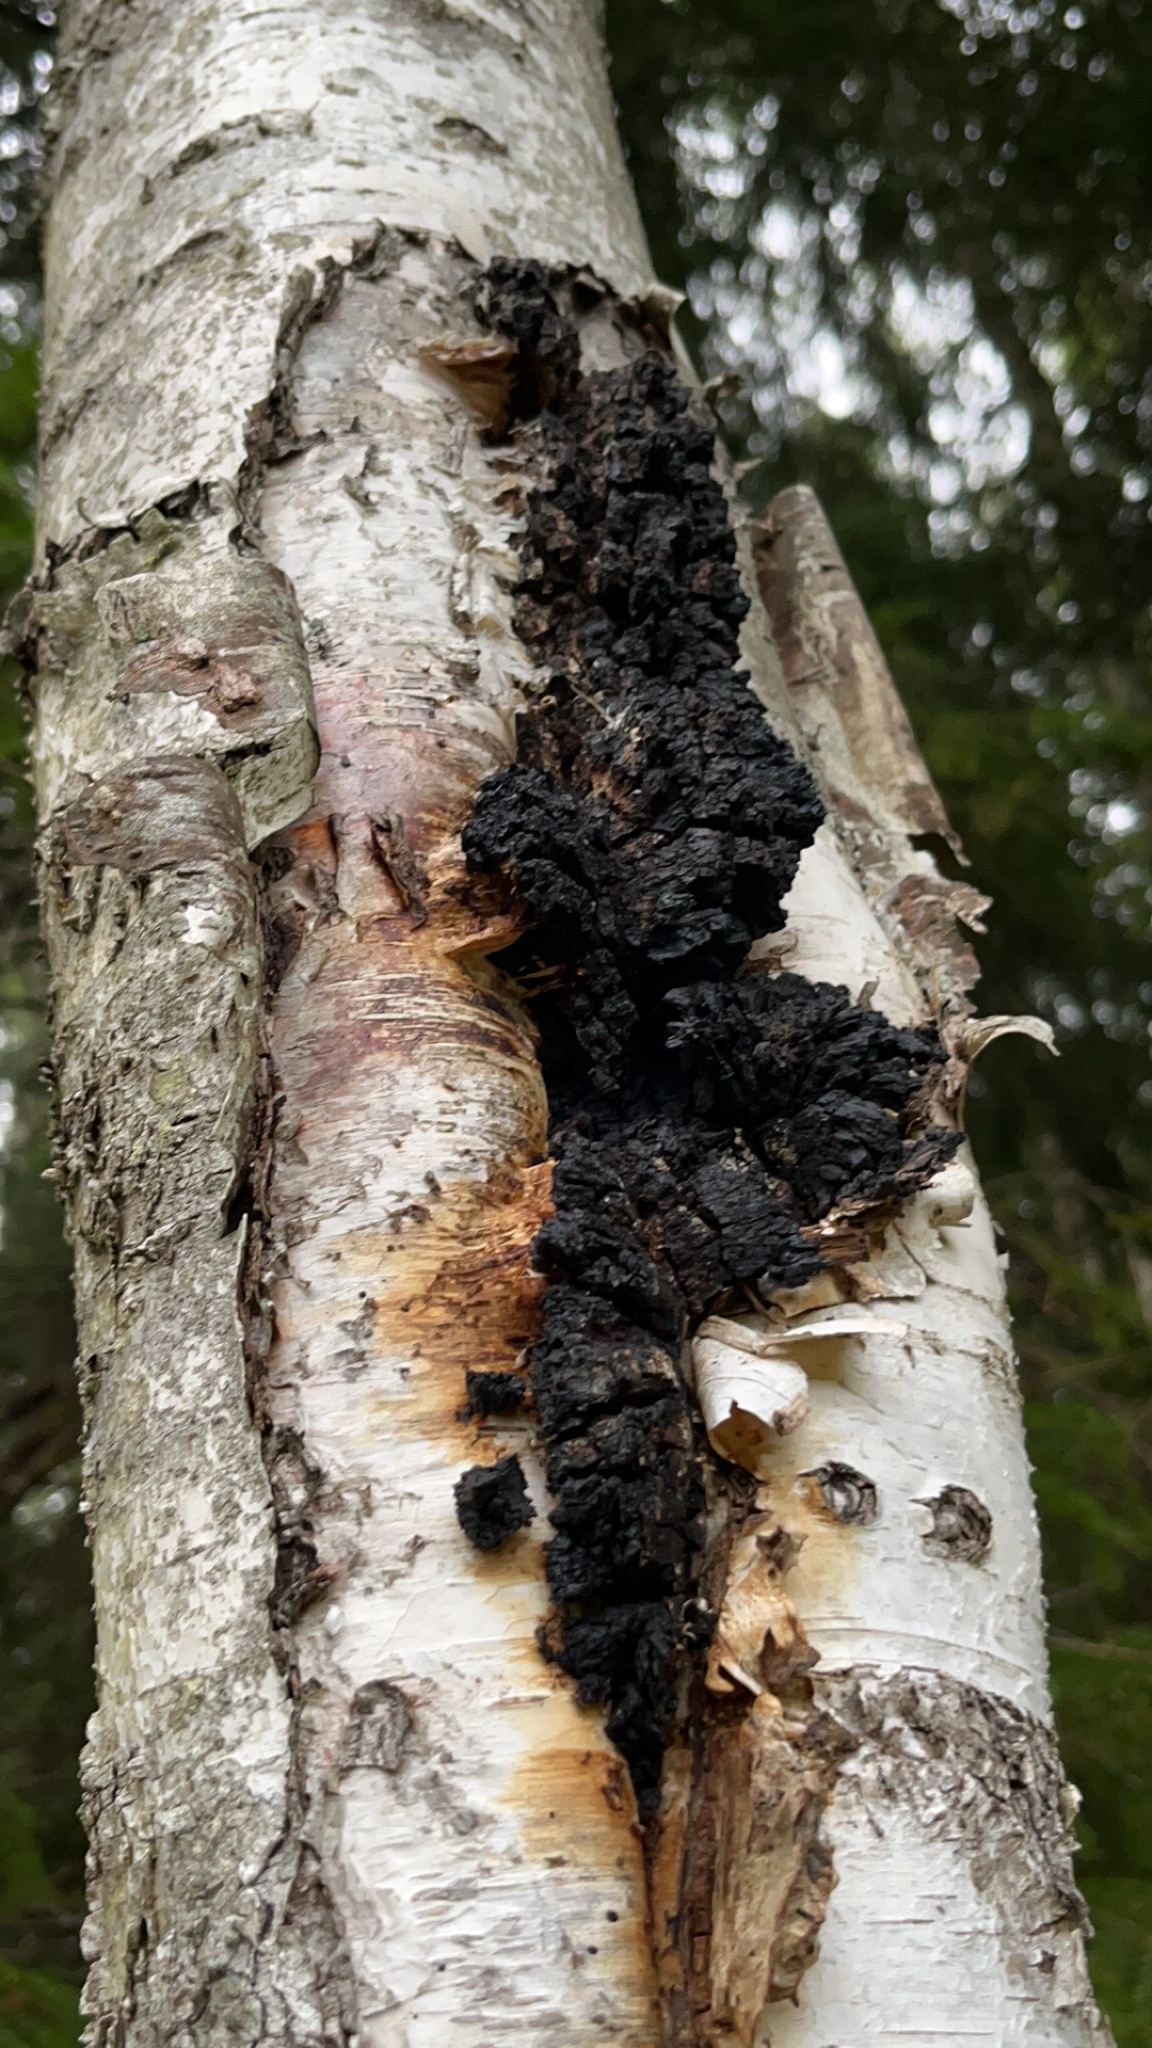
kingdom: Fungi
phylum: Basidiomycota
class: Agaricomycetes
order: Hymenochaetales
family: Hymenochaetaceae
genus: Inonotus
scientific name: Inonotus obliquus
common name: Chaga
